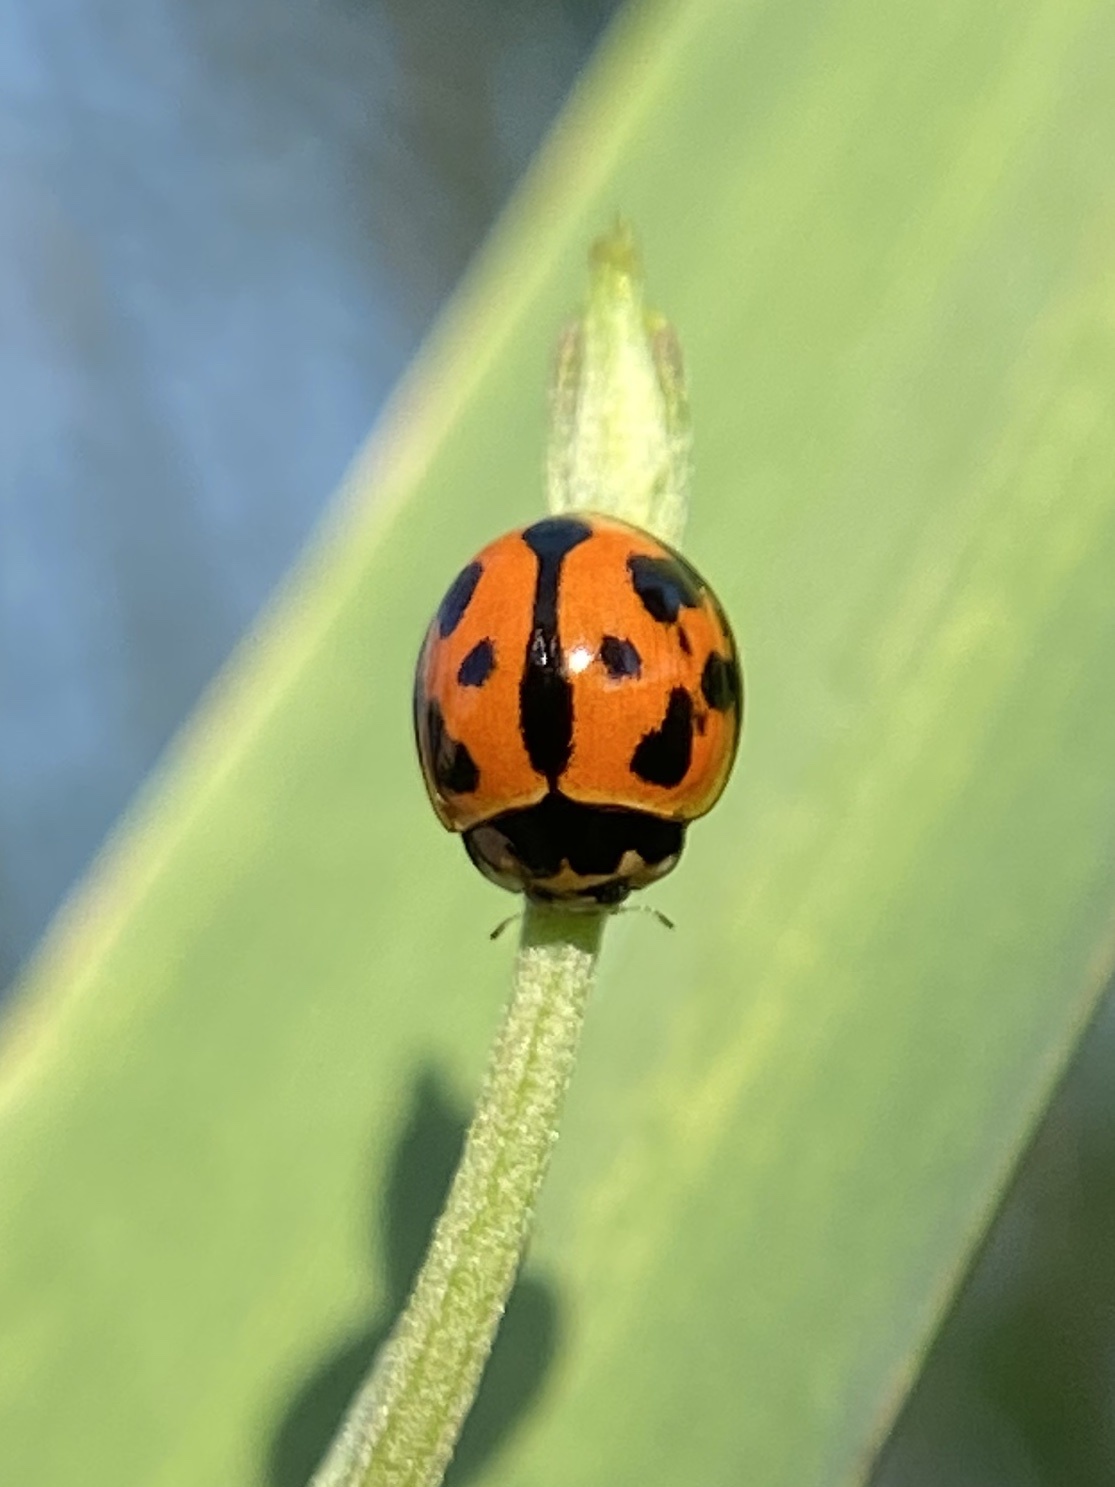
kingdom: Animalia
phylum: Arthropoda
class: Insecta
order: Coleoptera
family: Coccinellidae
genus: Coelophora
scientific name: Coelophora inaequalis
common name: Common australian lady beetle
